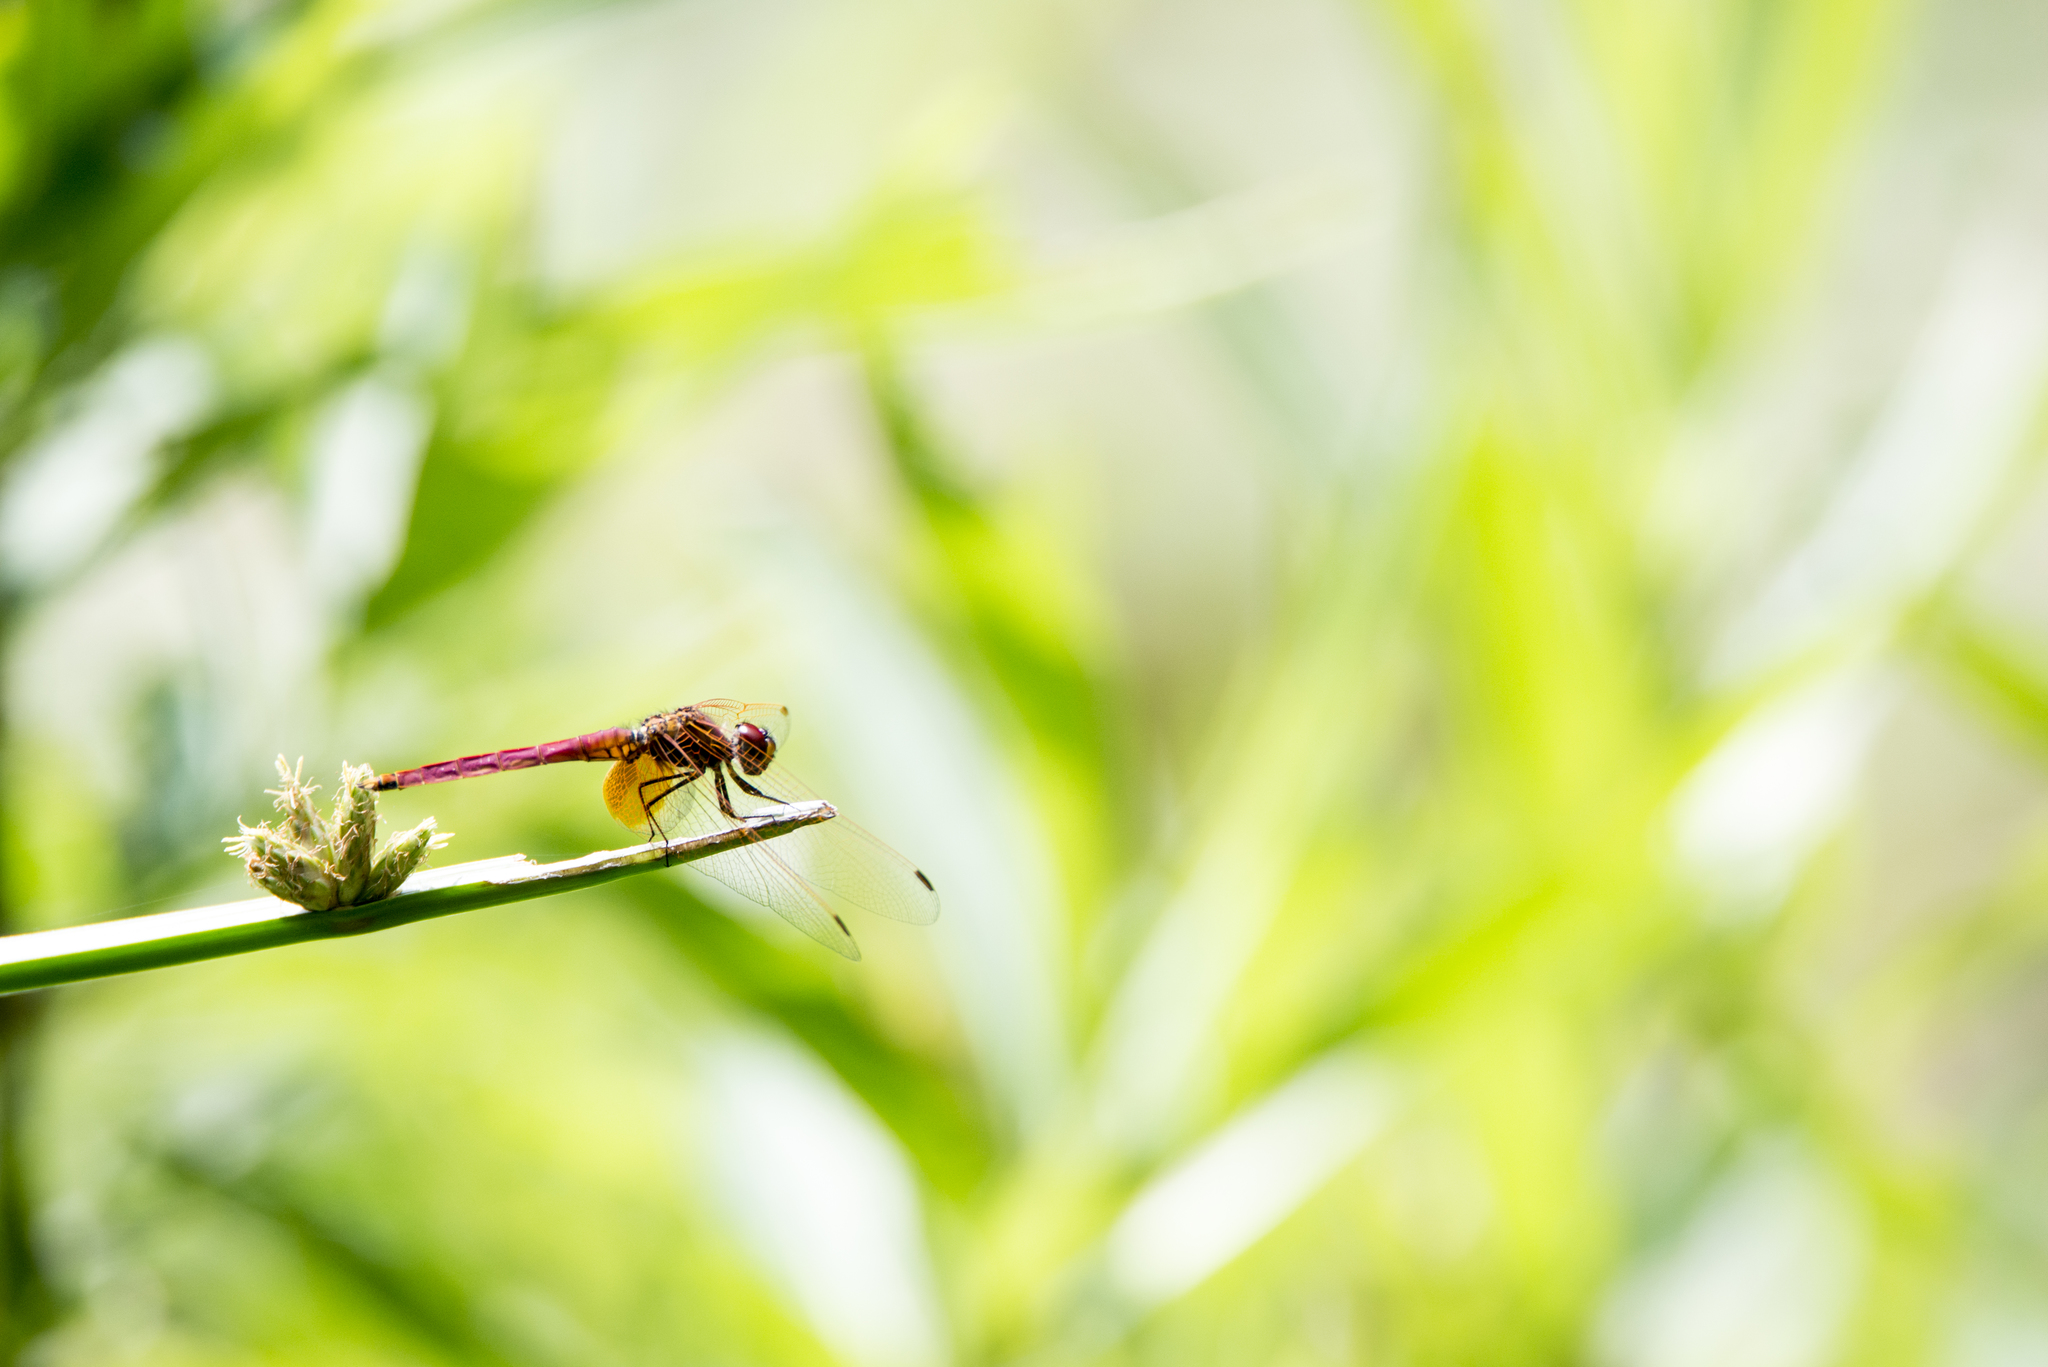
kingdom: Animalia
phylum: Arthropoda
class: Insecta
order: Odonata
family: Libellulidae
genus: Trithemis
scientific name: Trithemis aurora
